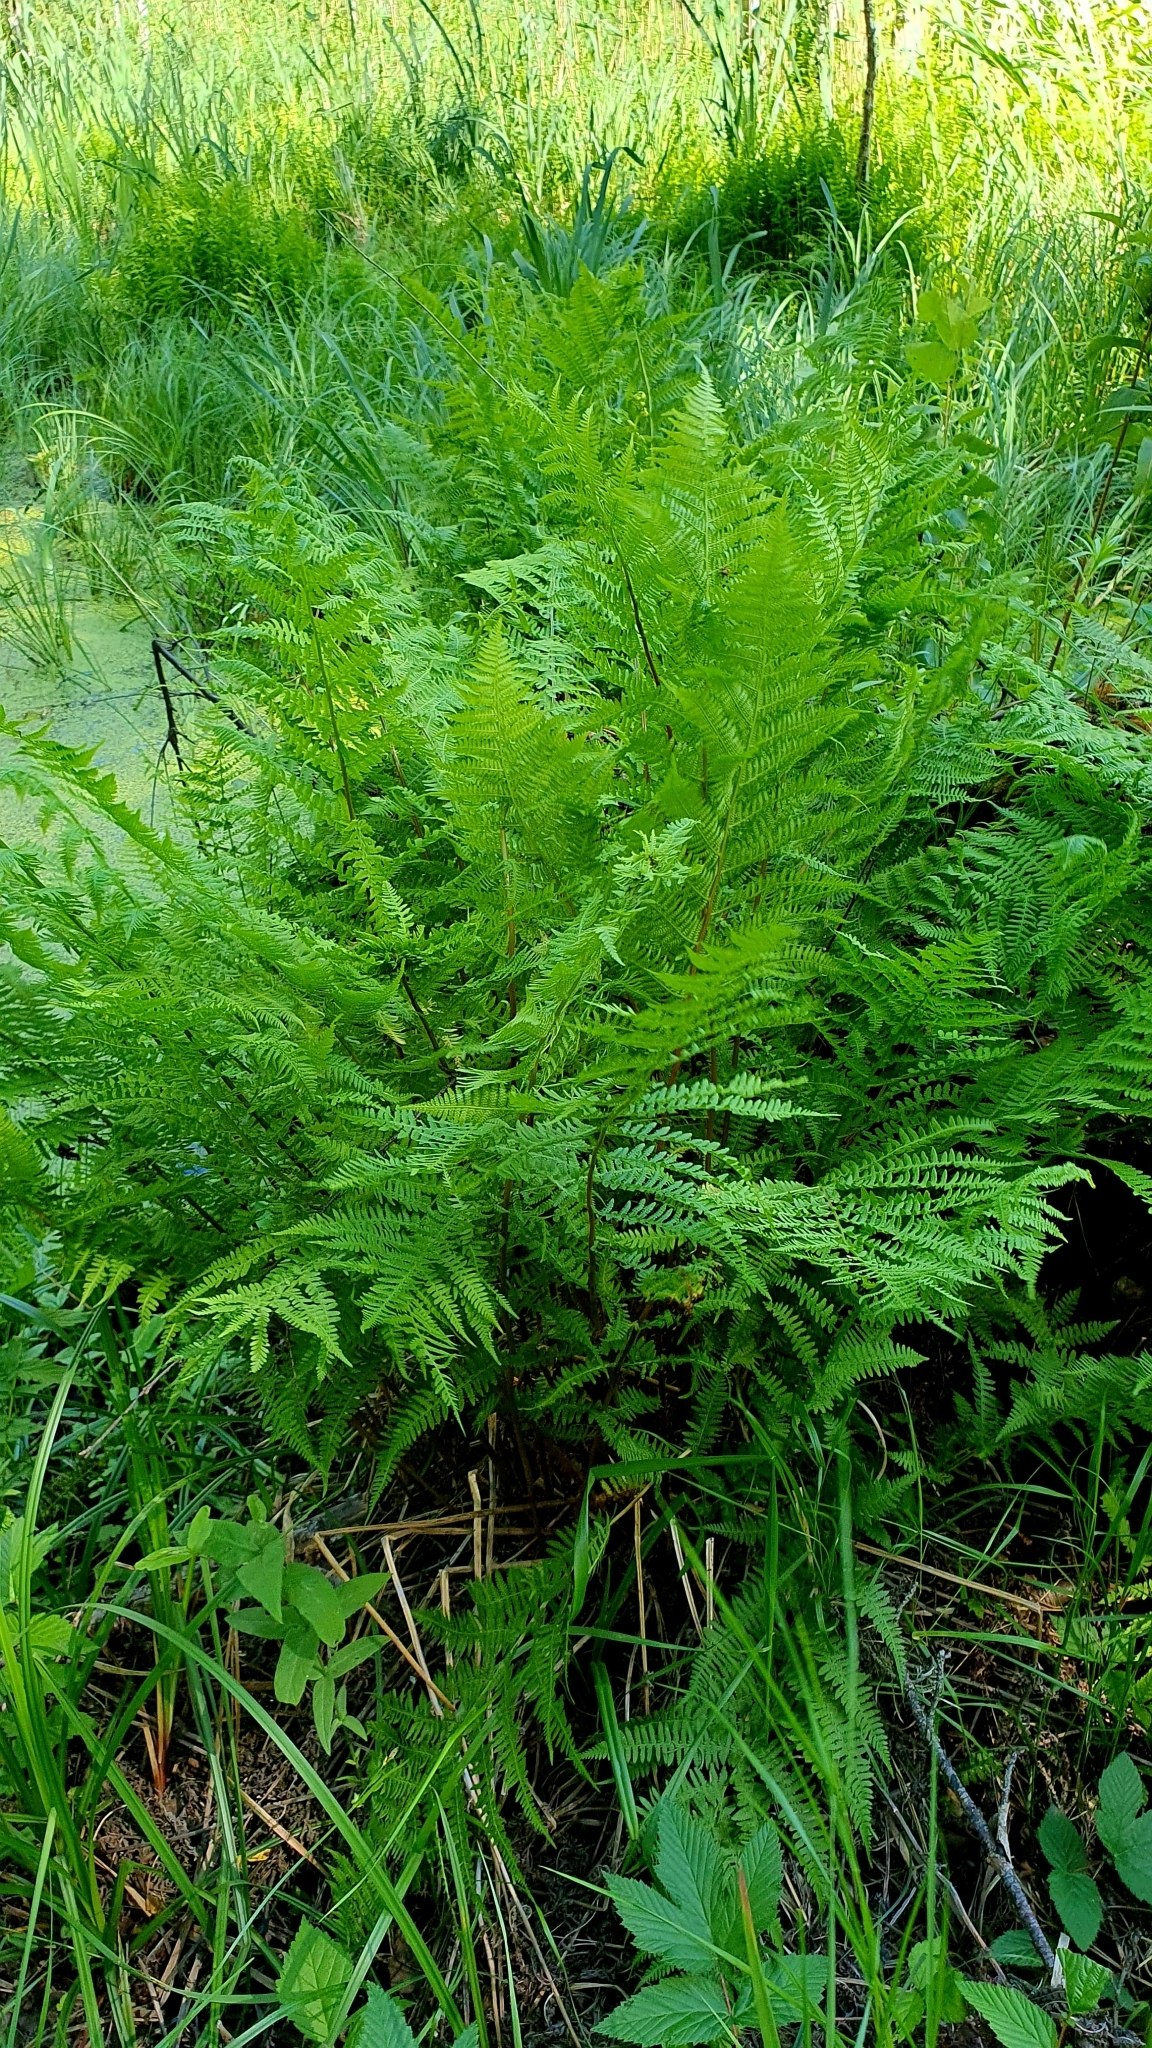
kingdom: Plantae
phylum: Tracheophyta
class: Polypodiopsida
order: Polypodiales
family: Athyriaceae
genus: Athyrium
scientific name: Athyrium filix-femina
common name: Lady fern
